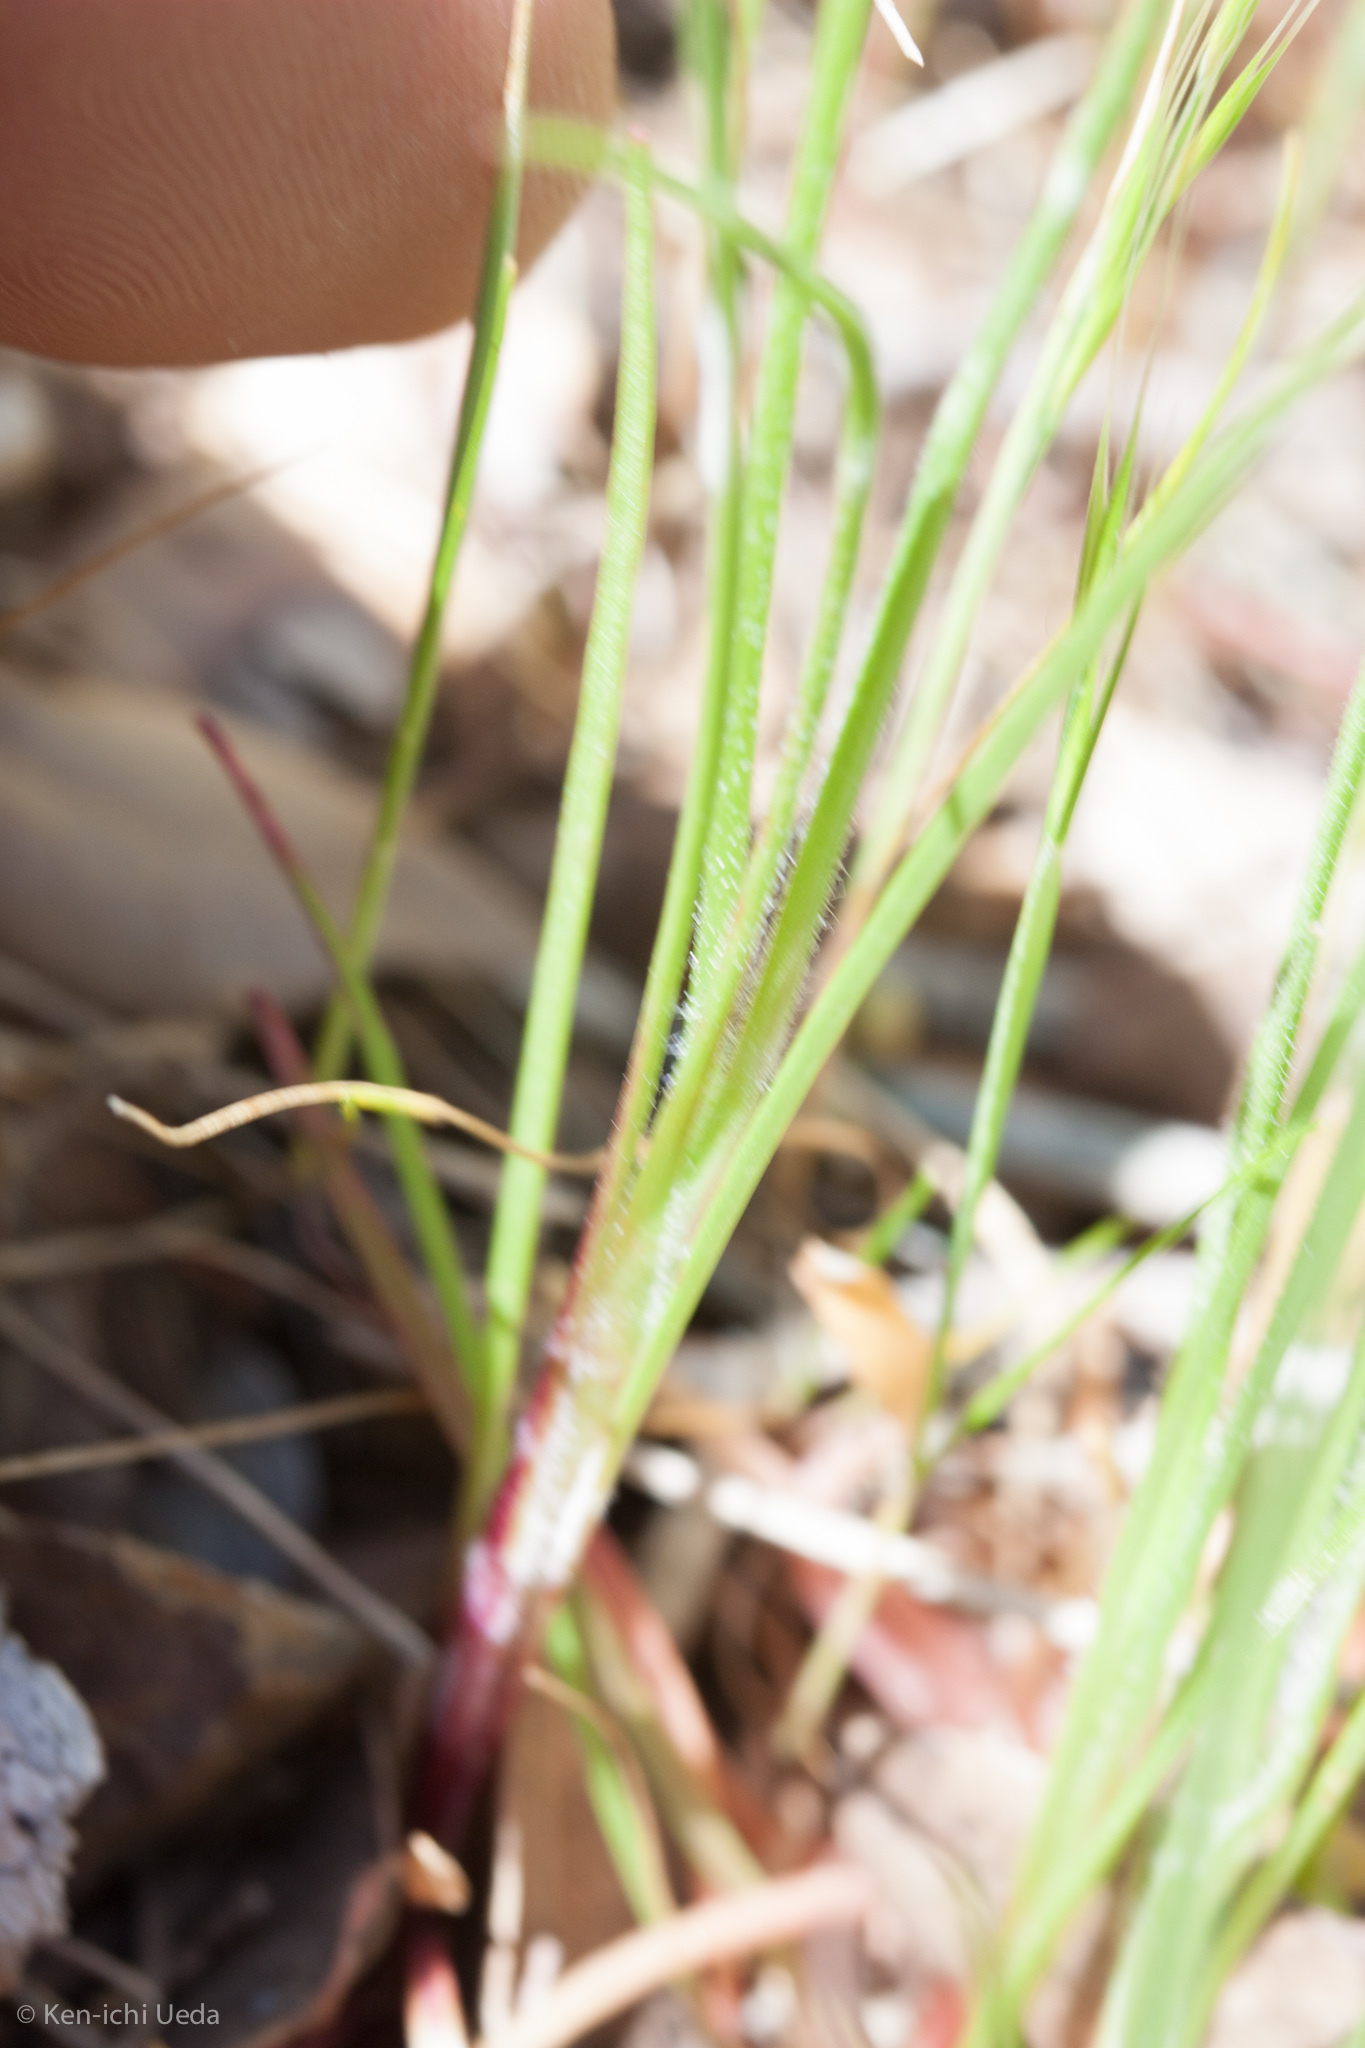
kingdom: Plantae
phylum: Tracheophyta
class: Magnoliopsida
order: Asterales
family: Asteraceae
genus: Microseris
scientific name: Microseris lindleyi
